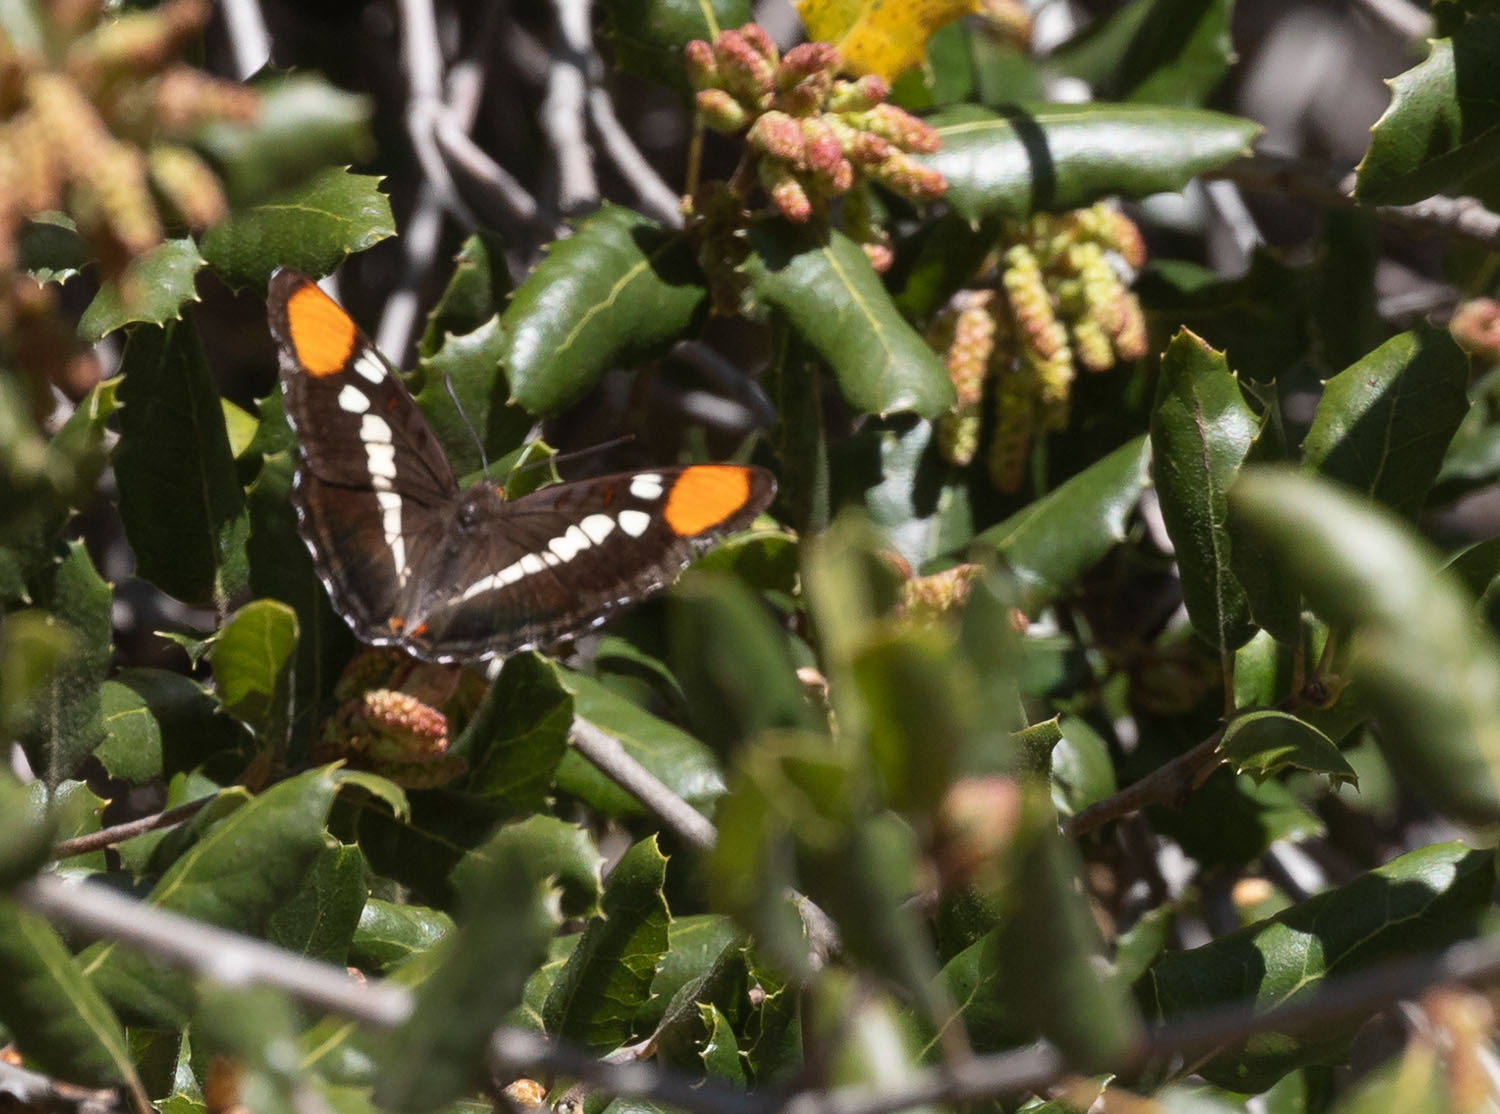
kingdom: Animalia
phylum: Arthropoda
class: Insecta
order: Lepidoptera
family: Nymphalidae
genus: Limenitis
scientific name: Limenitis bredowii
